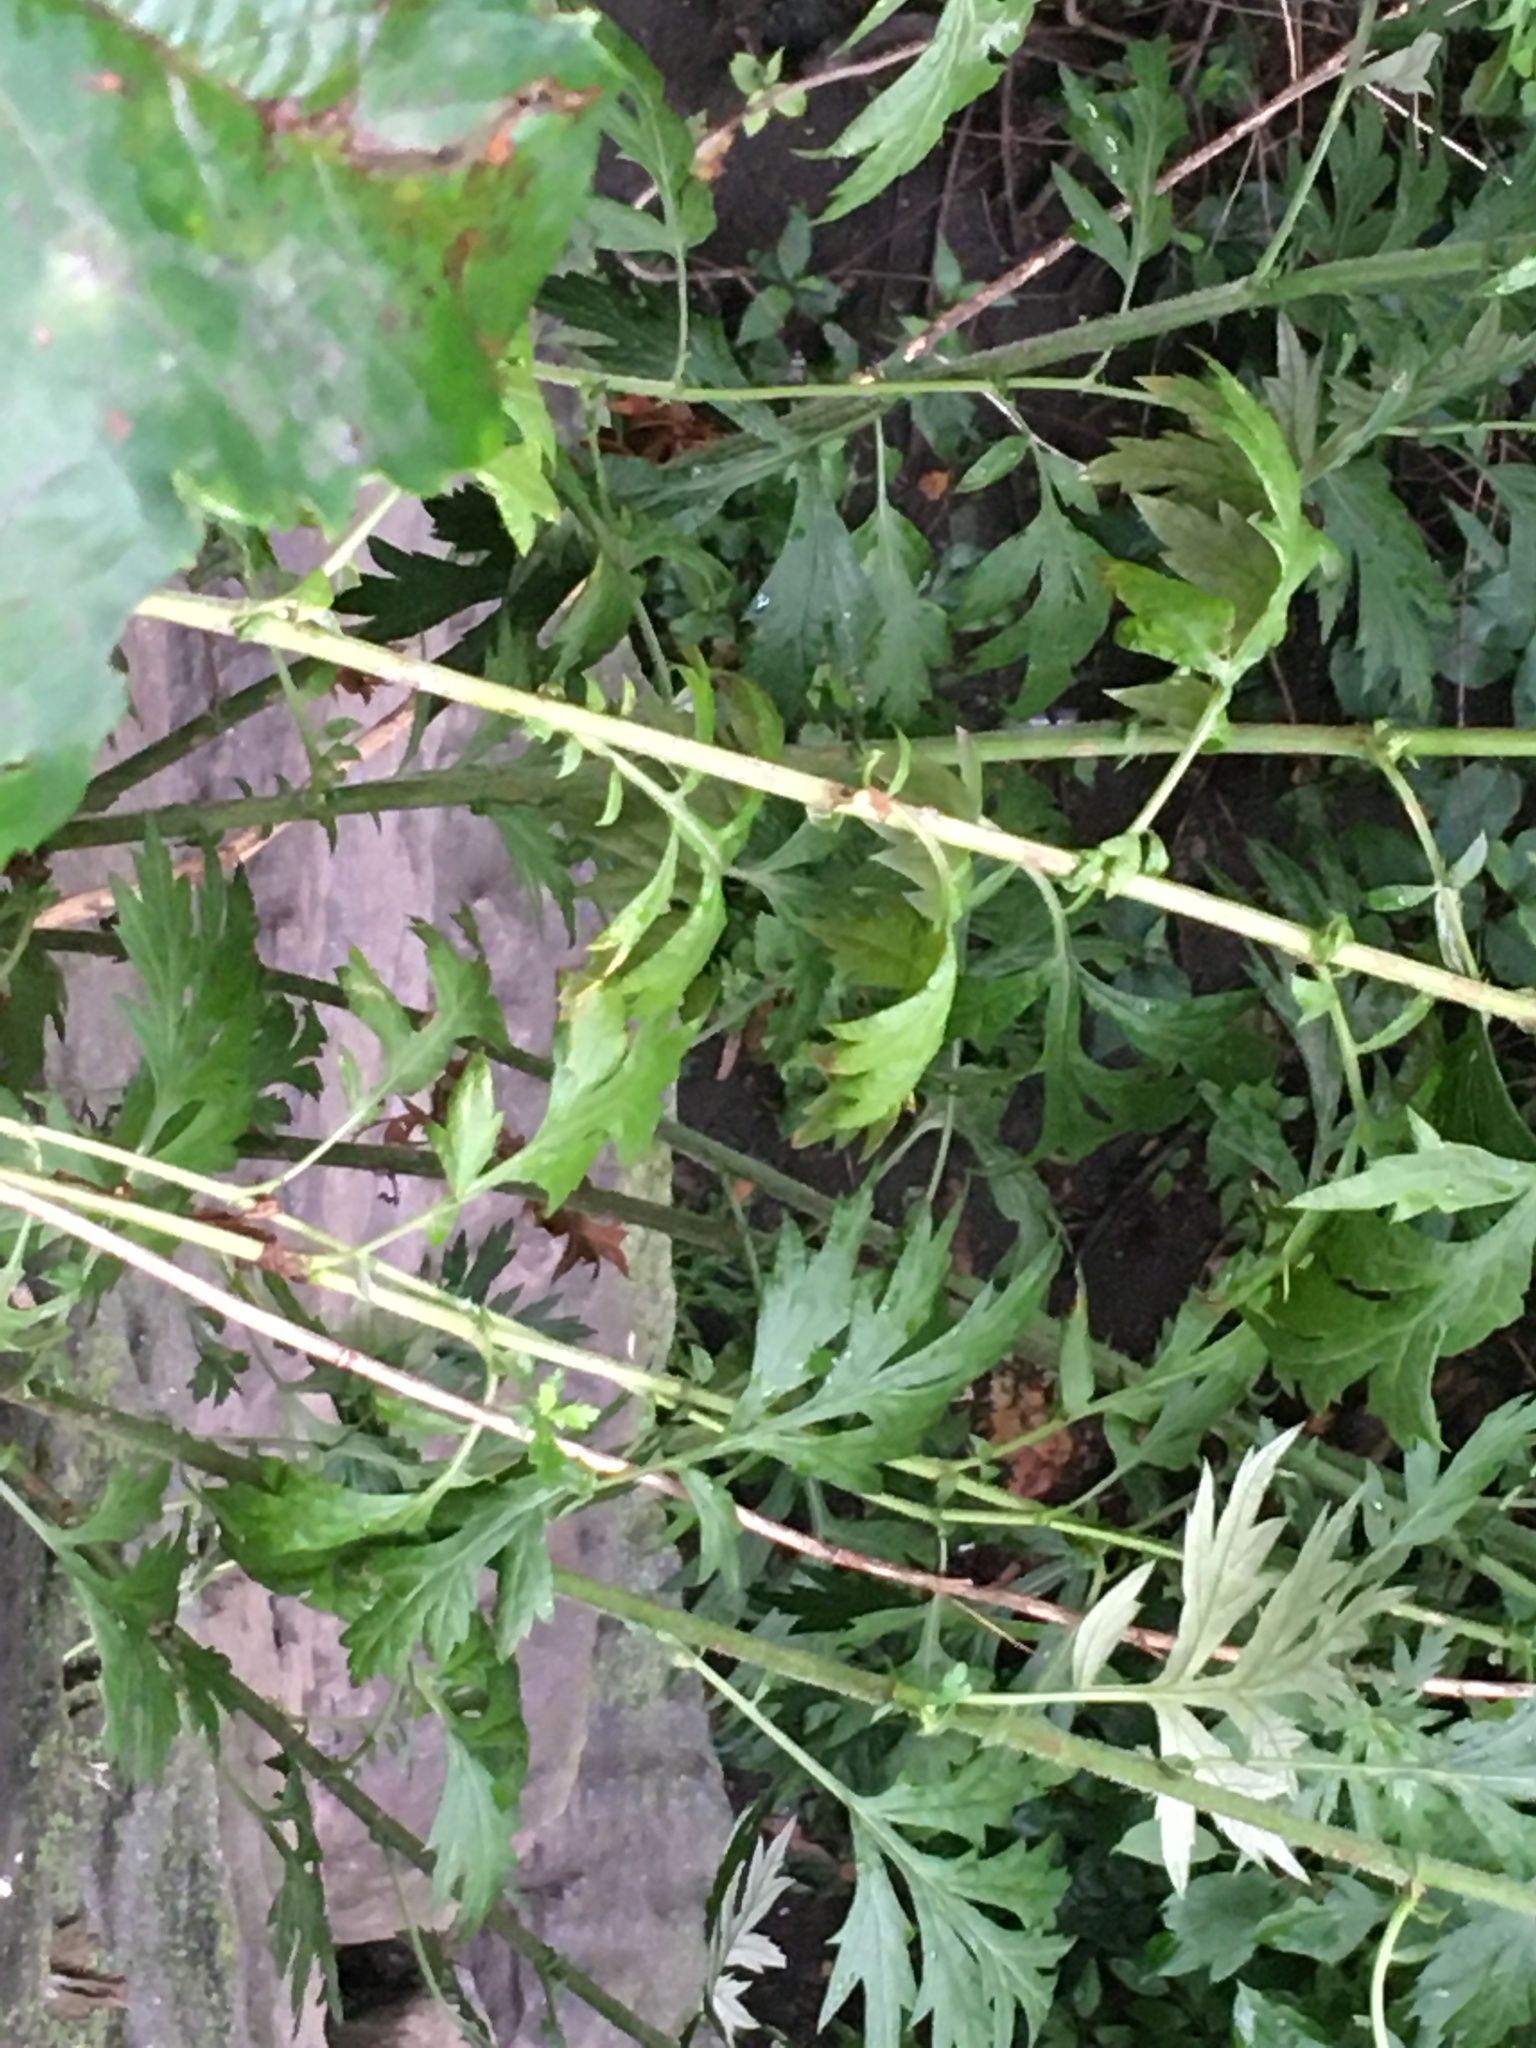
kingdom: Plantae
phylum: Tracheophyta
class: Magnoliopsida
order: Asterales
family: Asteraceae
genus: Artemisia
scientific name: Artemisia vulgaris
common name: Mugwort
